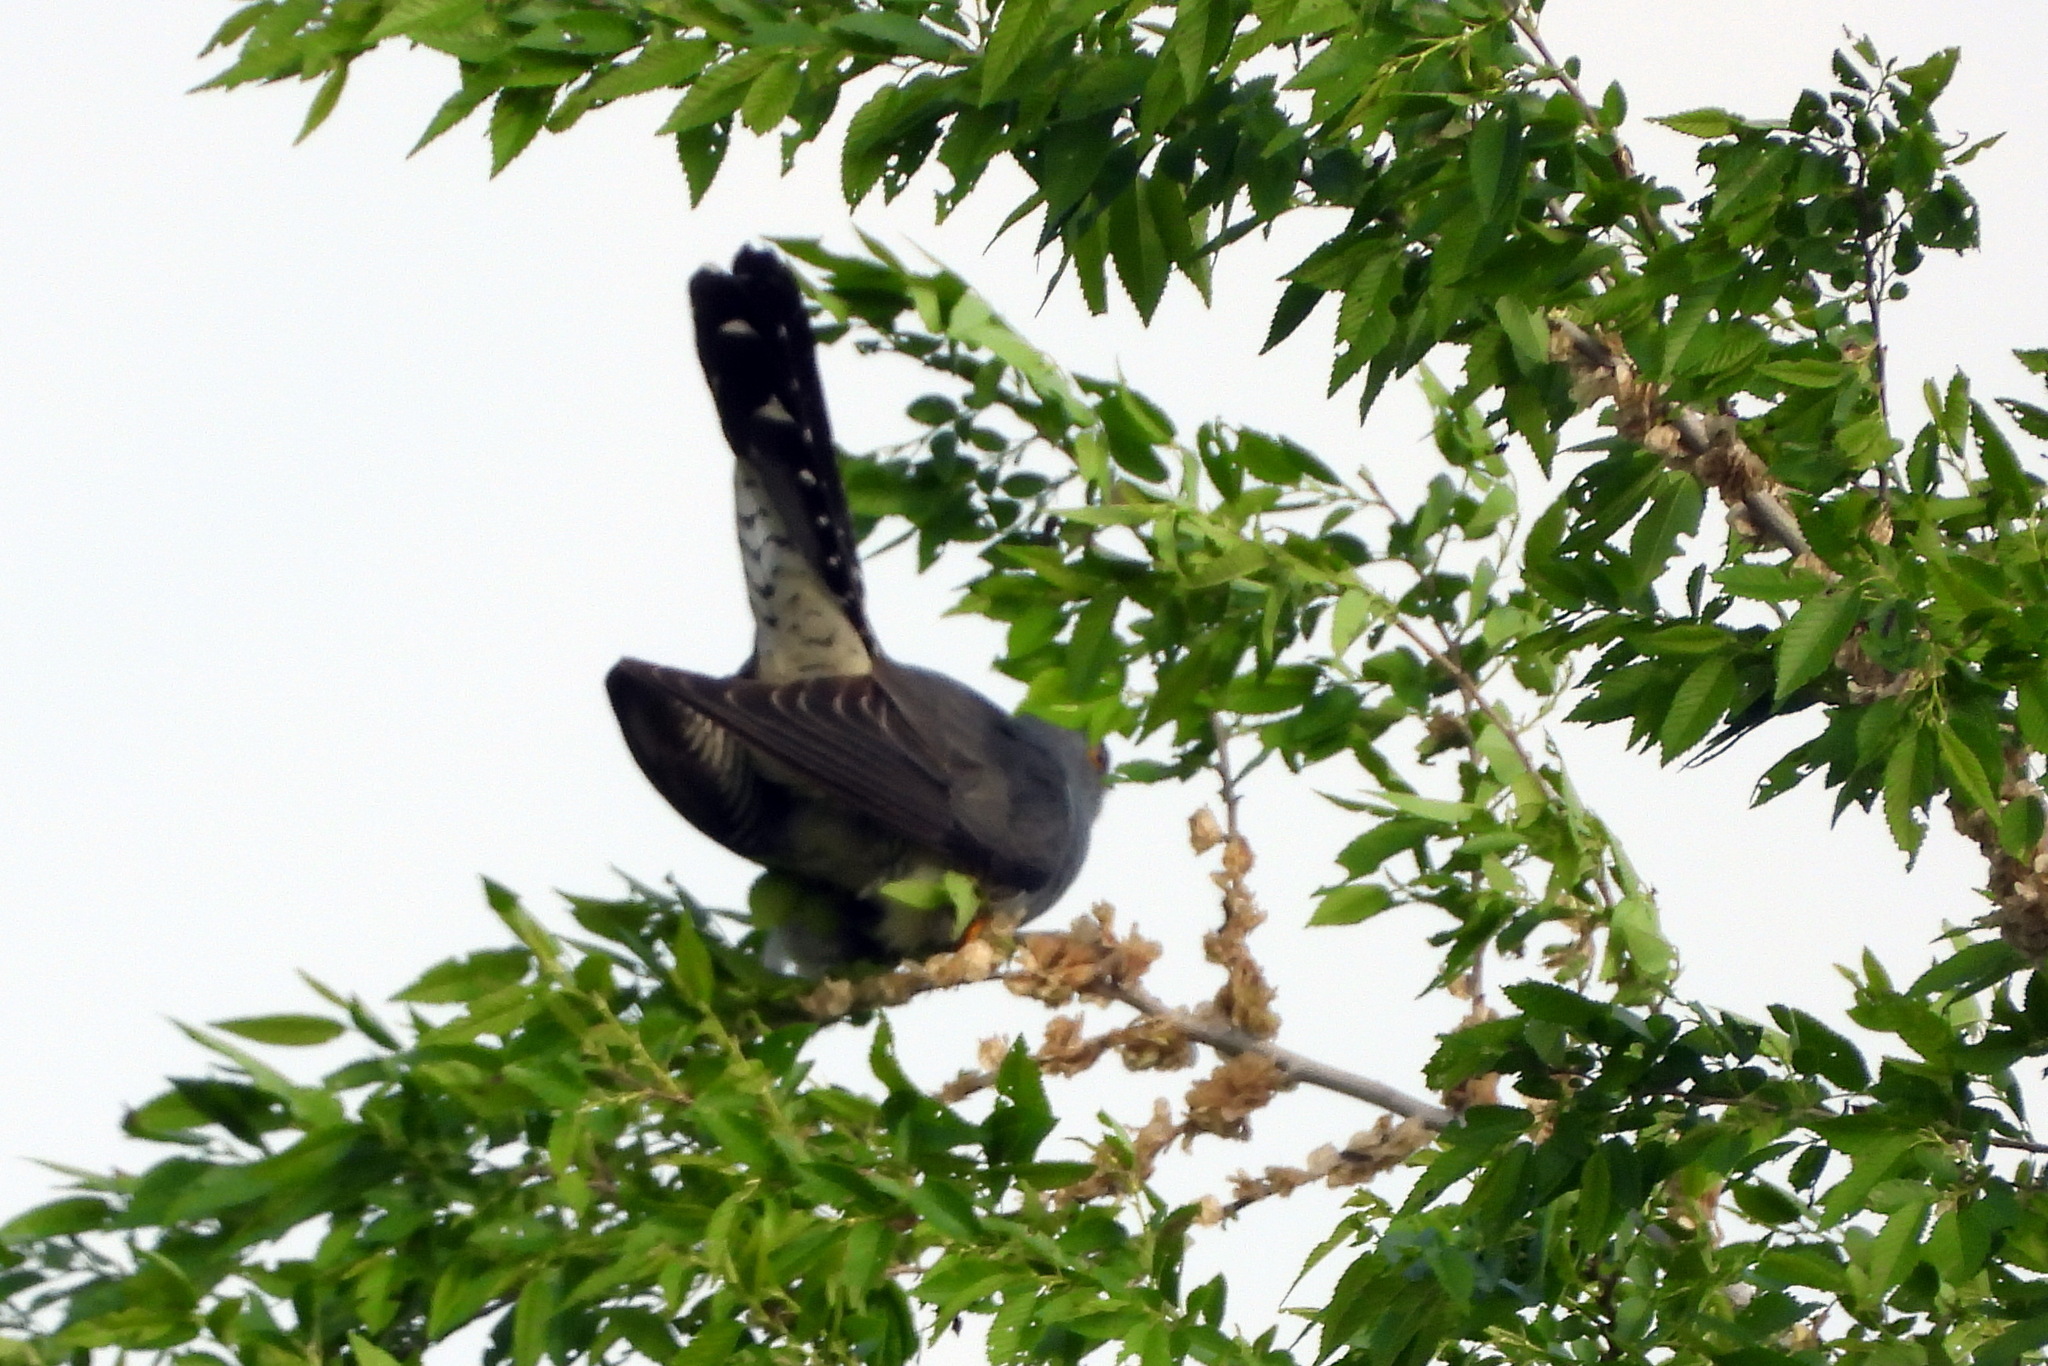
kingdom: Animalia
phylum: Chordata
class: Aves
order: Cuculiformes
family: Cuculidae
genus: Cuculus
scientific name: Cuculus canorus
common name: Common cuckoo
